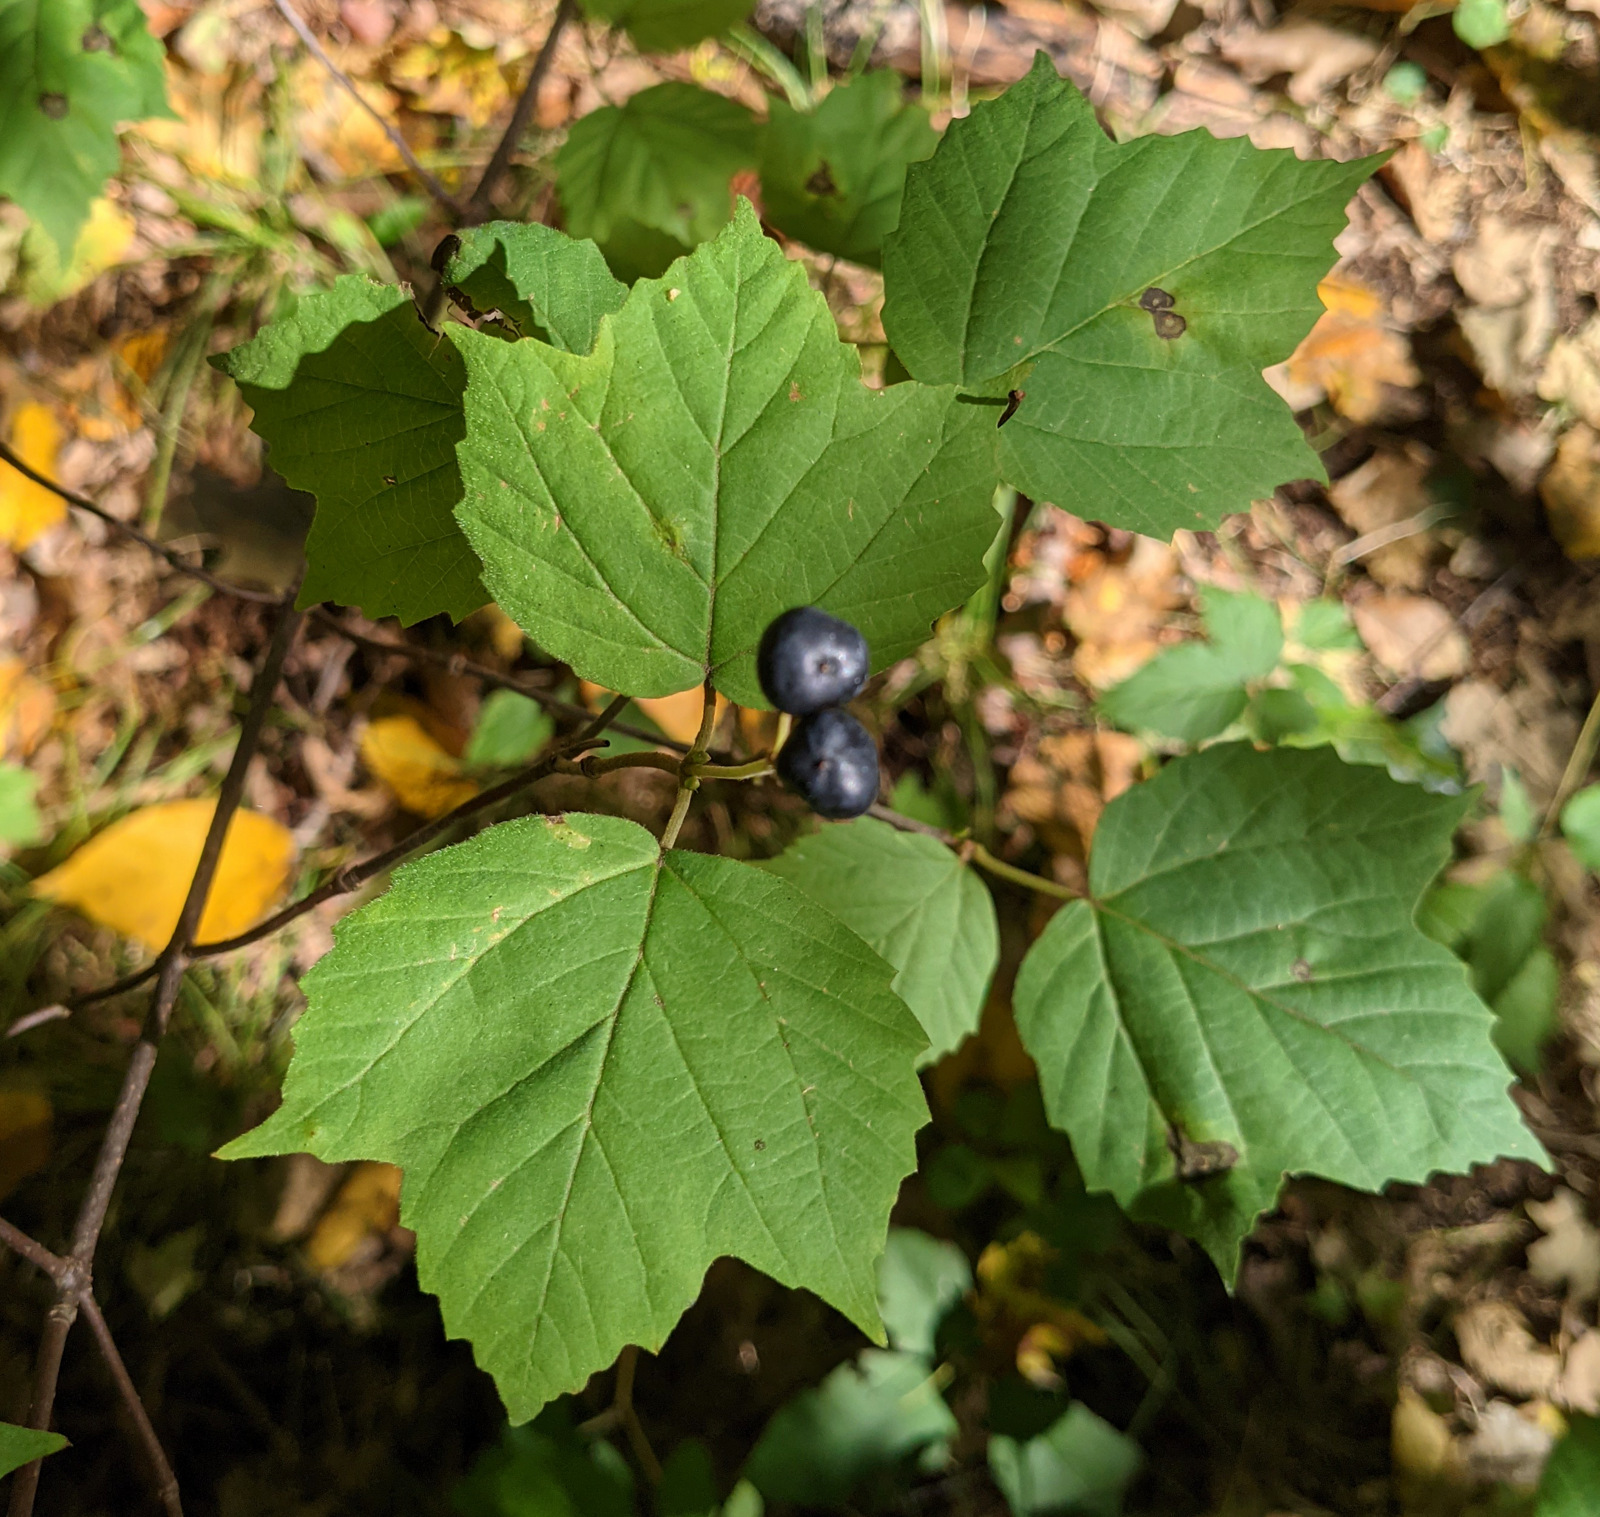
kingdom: Plantae
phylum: Tracheophyta
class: Magnoliopsida
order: Dipsacales
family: Viburnaceae
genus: Viburnum
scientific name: Viburnum acerifolium
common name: Dockmackie
